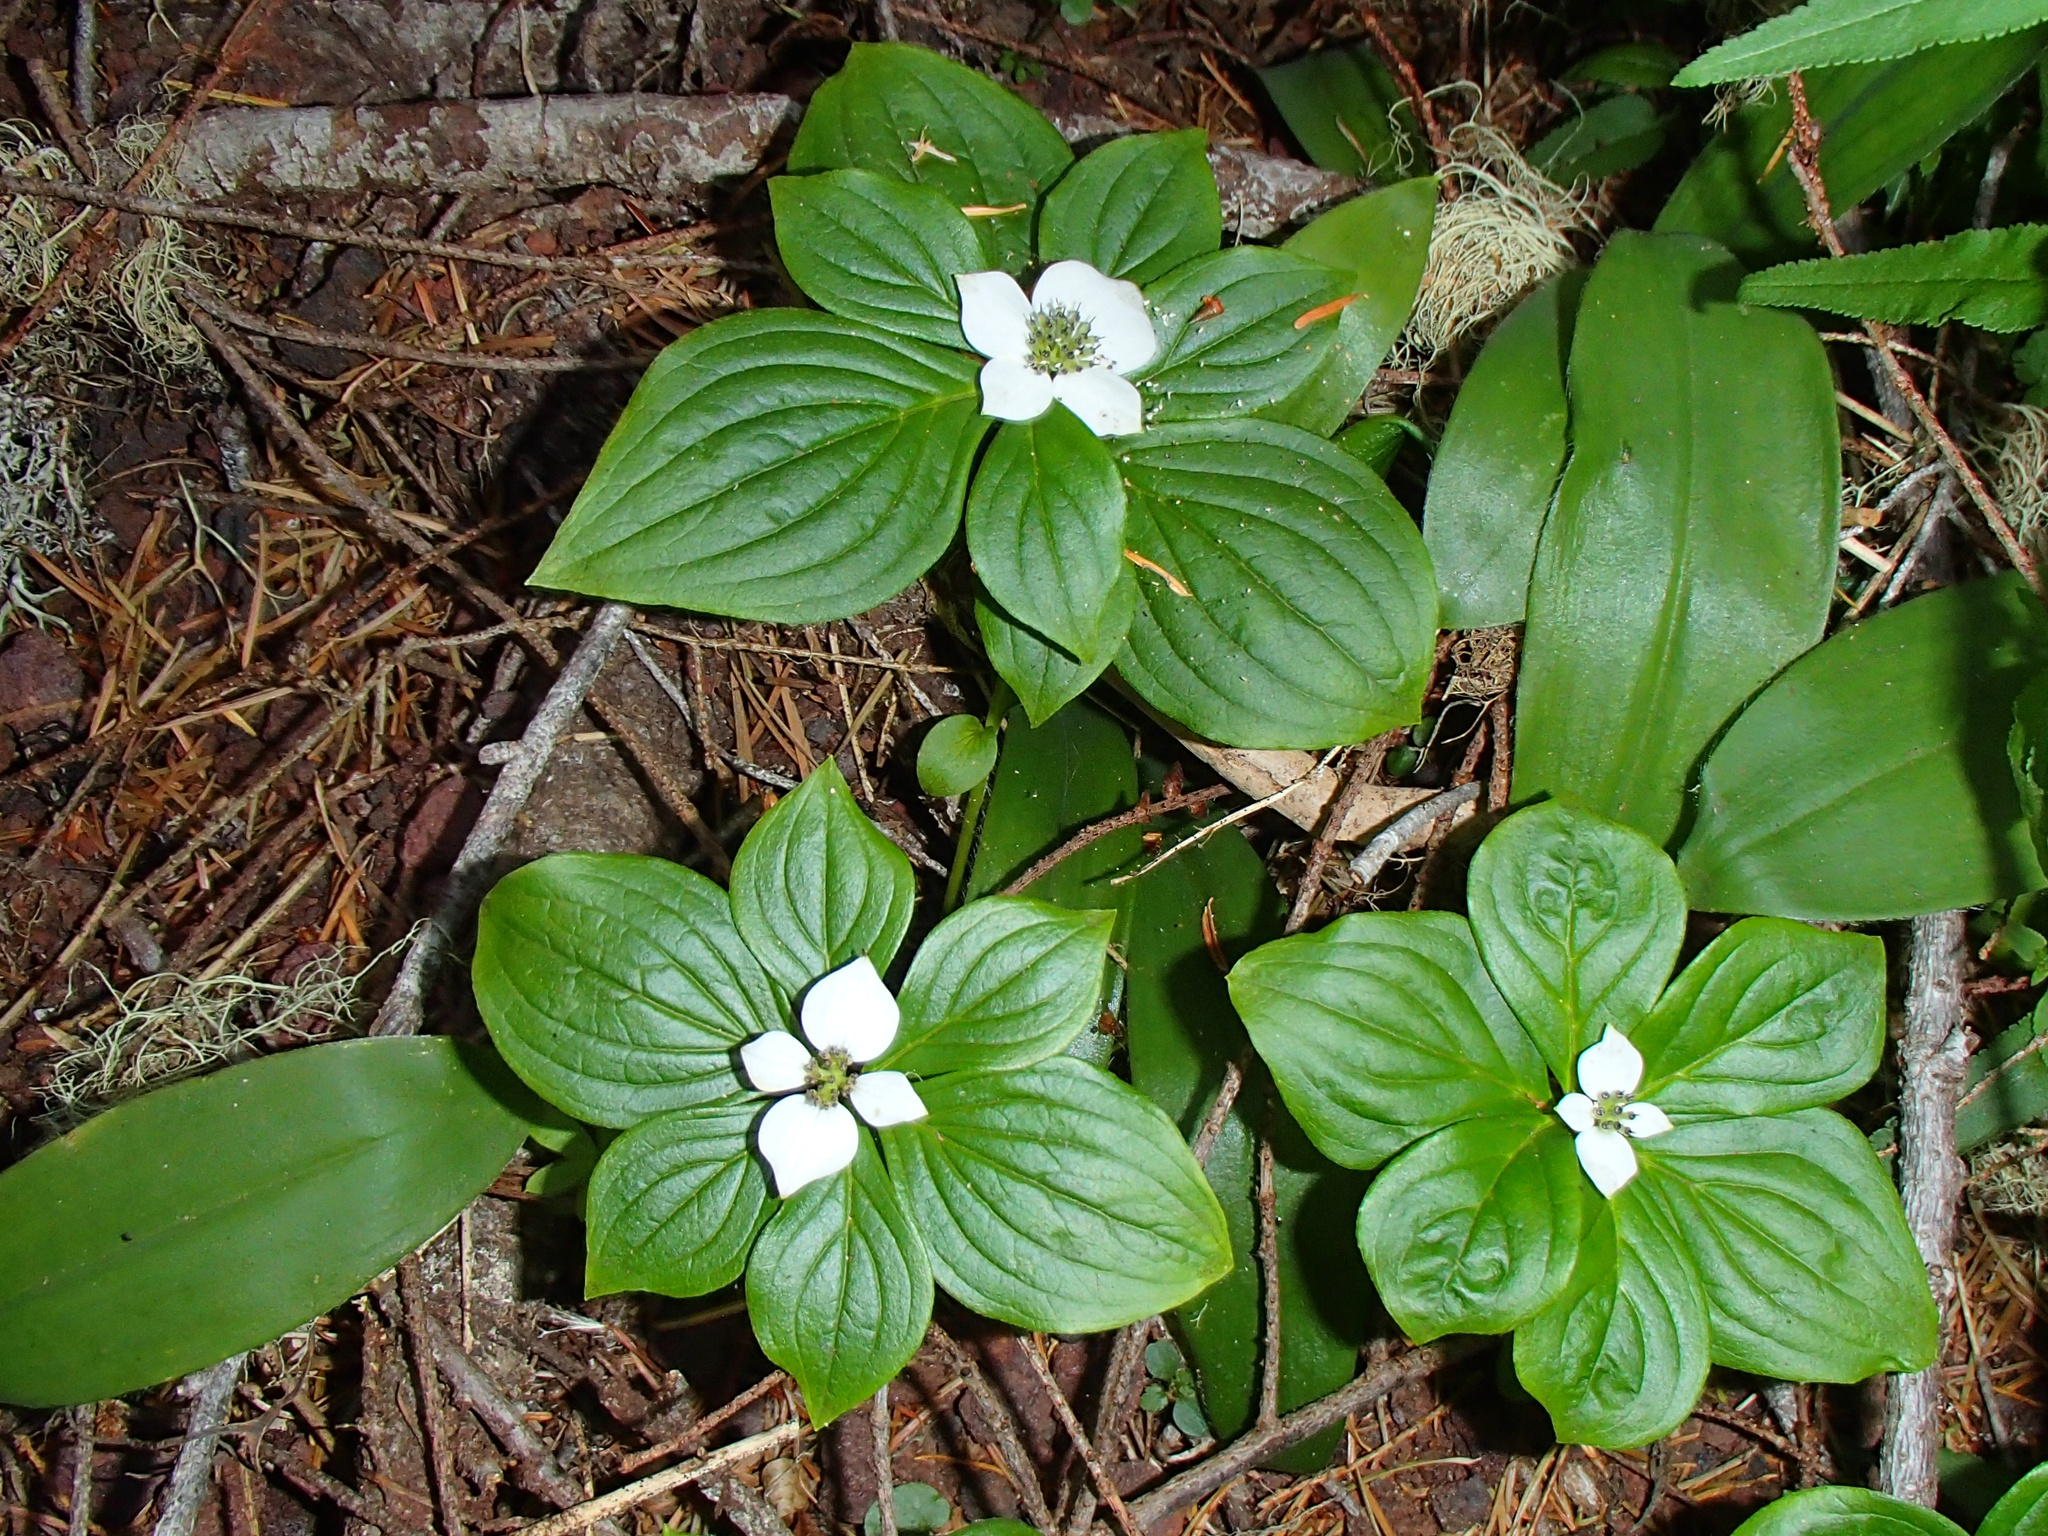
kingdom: Plantae
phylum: Tracheophyta
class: Magnoliopsida
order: Cornales
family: Cornaceae
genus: Cornus
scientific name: Cornus unalaschkensis
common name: Alaska bunchberry
